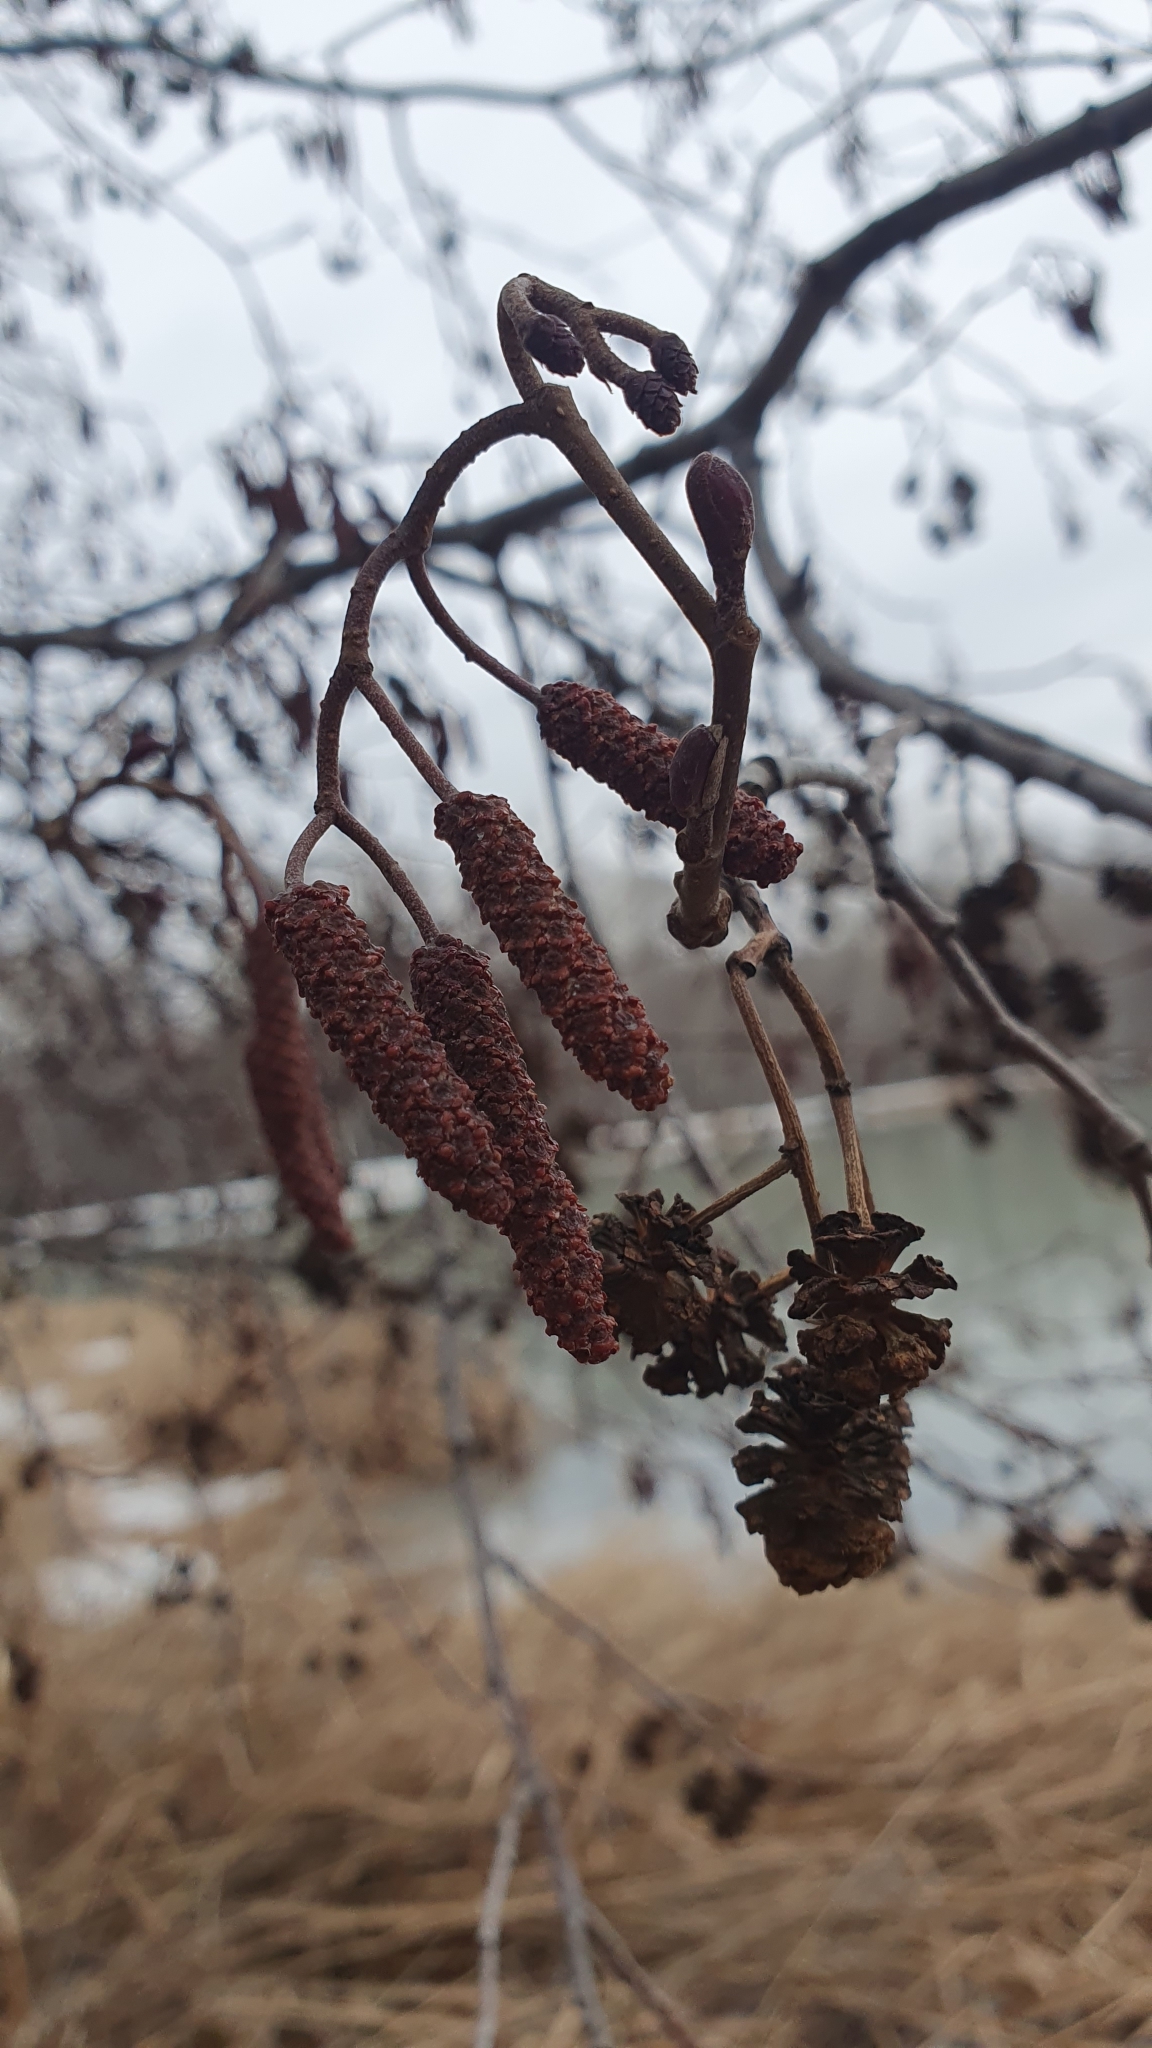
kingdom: Plantae
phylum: Tracheophyta
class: Magnoliopsida
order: Fagales
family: Betulaceae
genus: Alnus
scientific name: Alnus glutinosa
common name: Black alder
